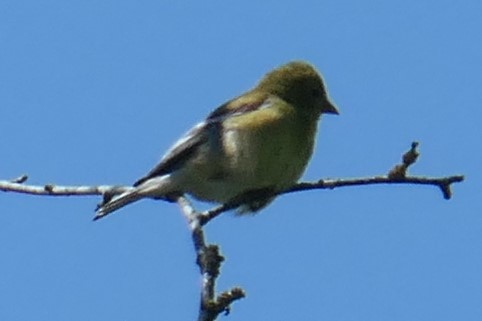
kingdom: Animalia
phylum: Chordata
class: Aves
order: Passeriformes
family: Fringillidae
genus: Spinus
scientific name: Spinus tristis
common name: American goldfinch
